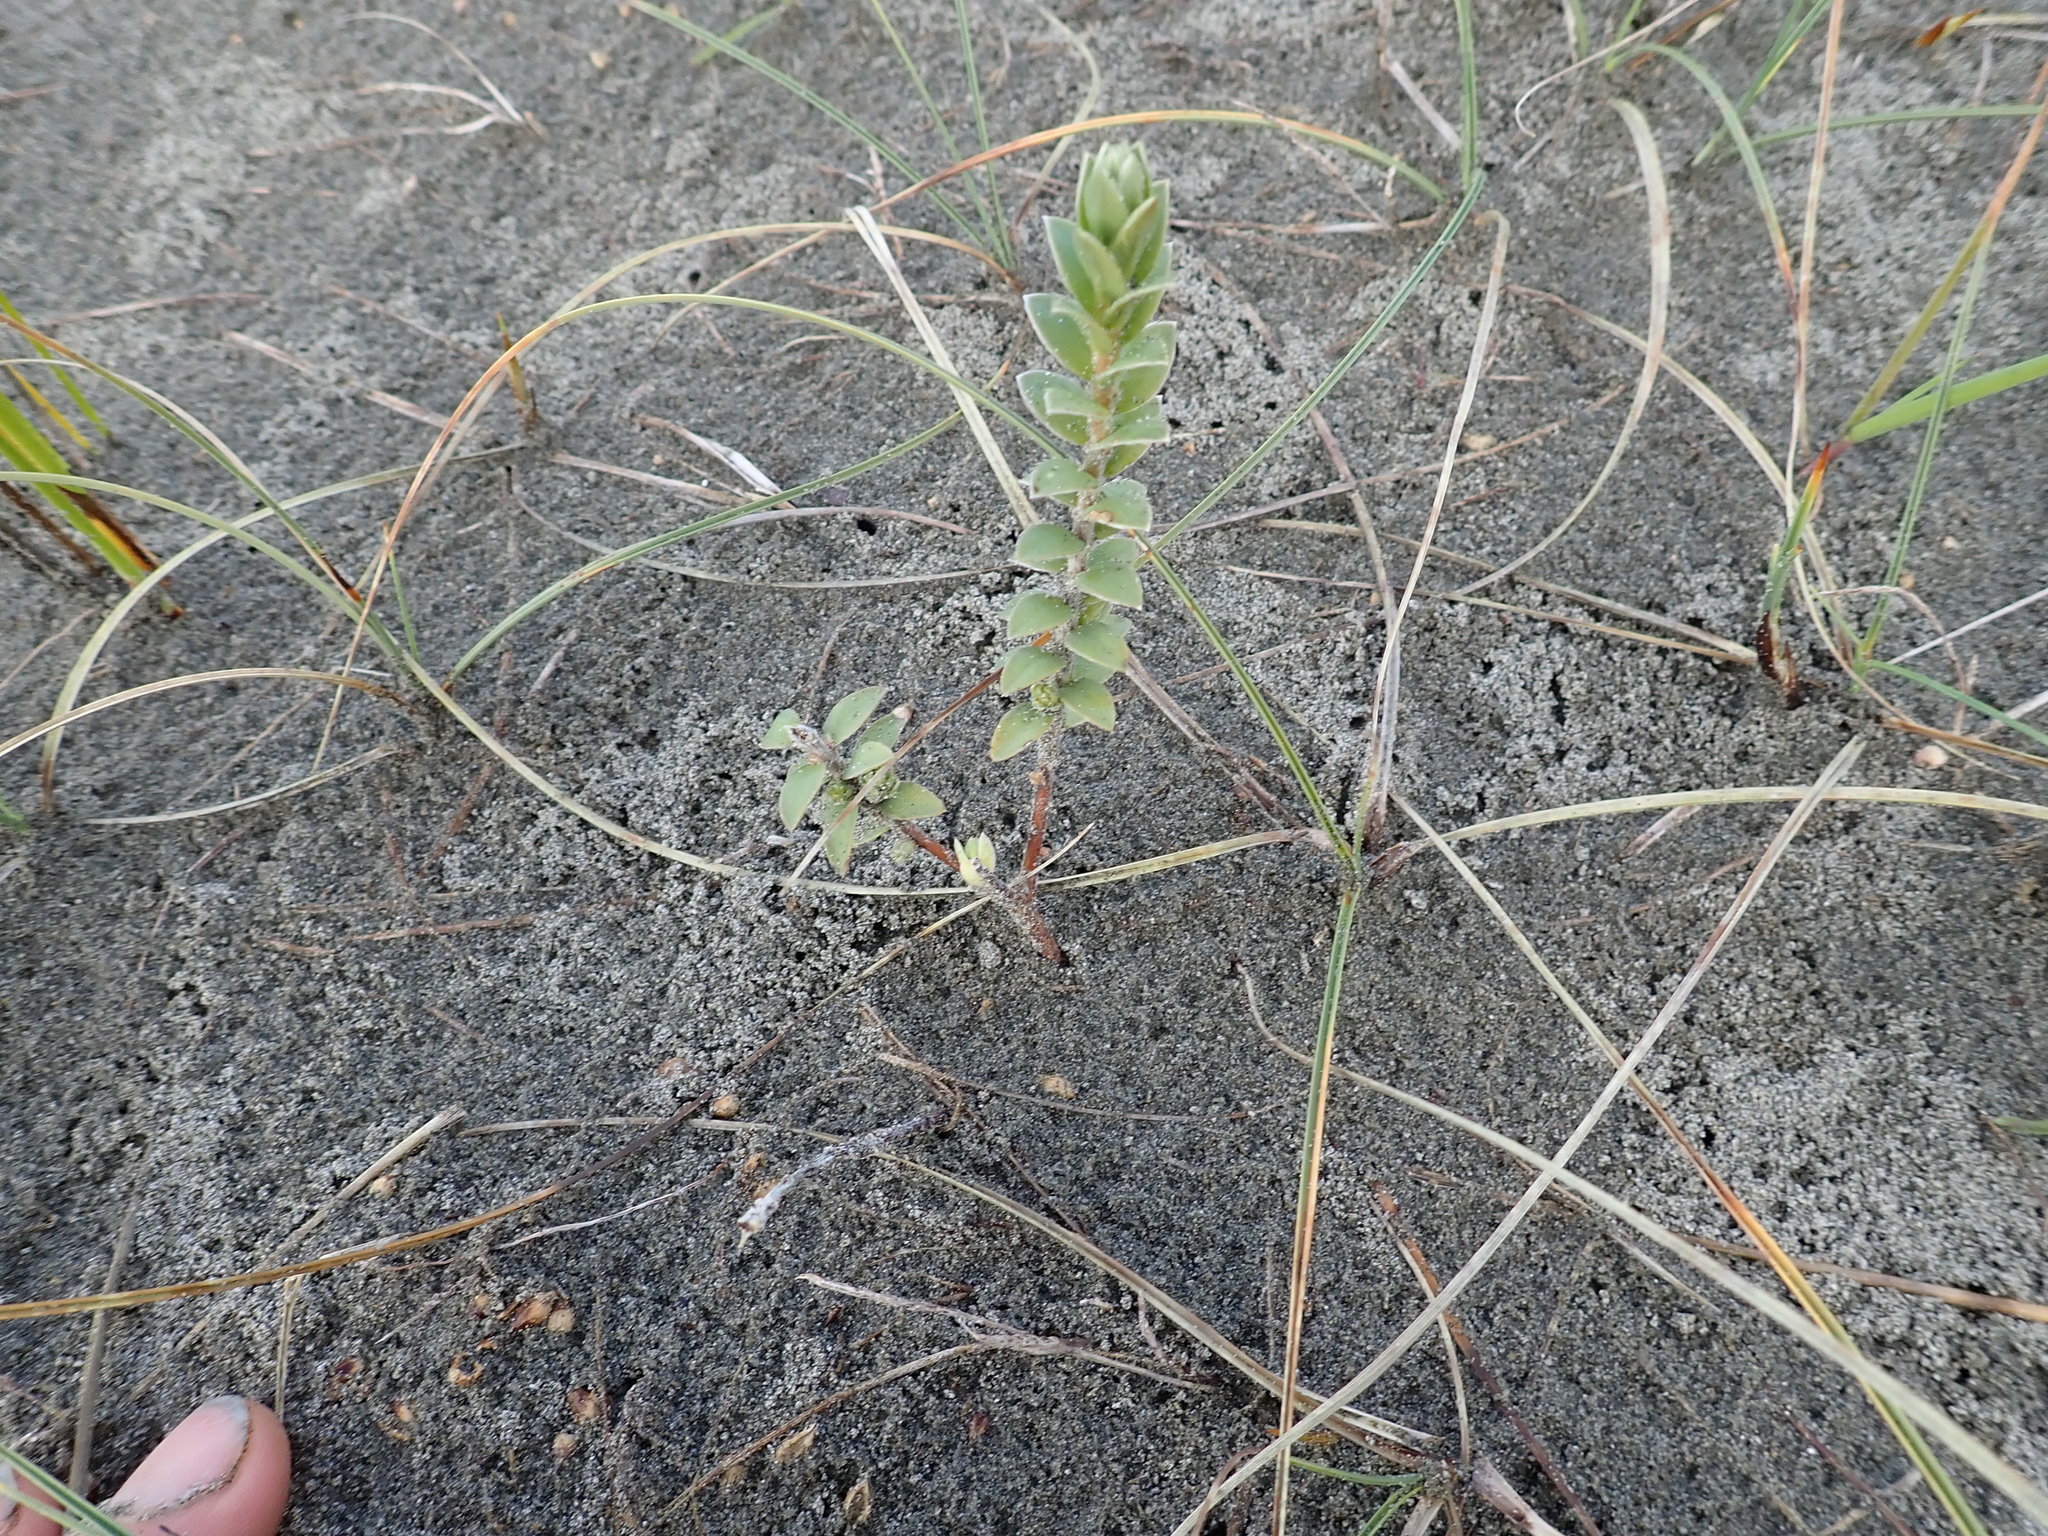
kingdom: Plantae
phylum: Tracheophyta
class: Magnoliopsida
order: Malvales
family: Thymelaeaceae
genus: Pimelea
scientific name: Pimelea villosa
